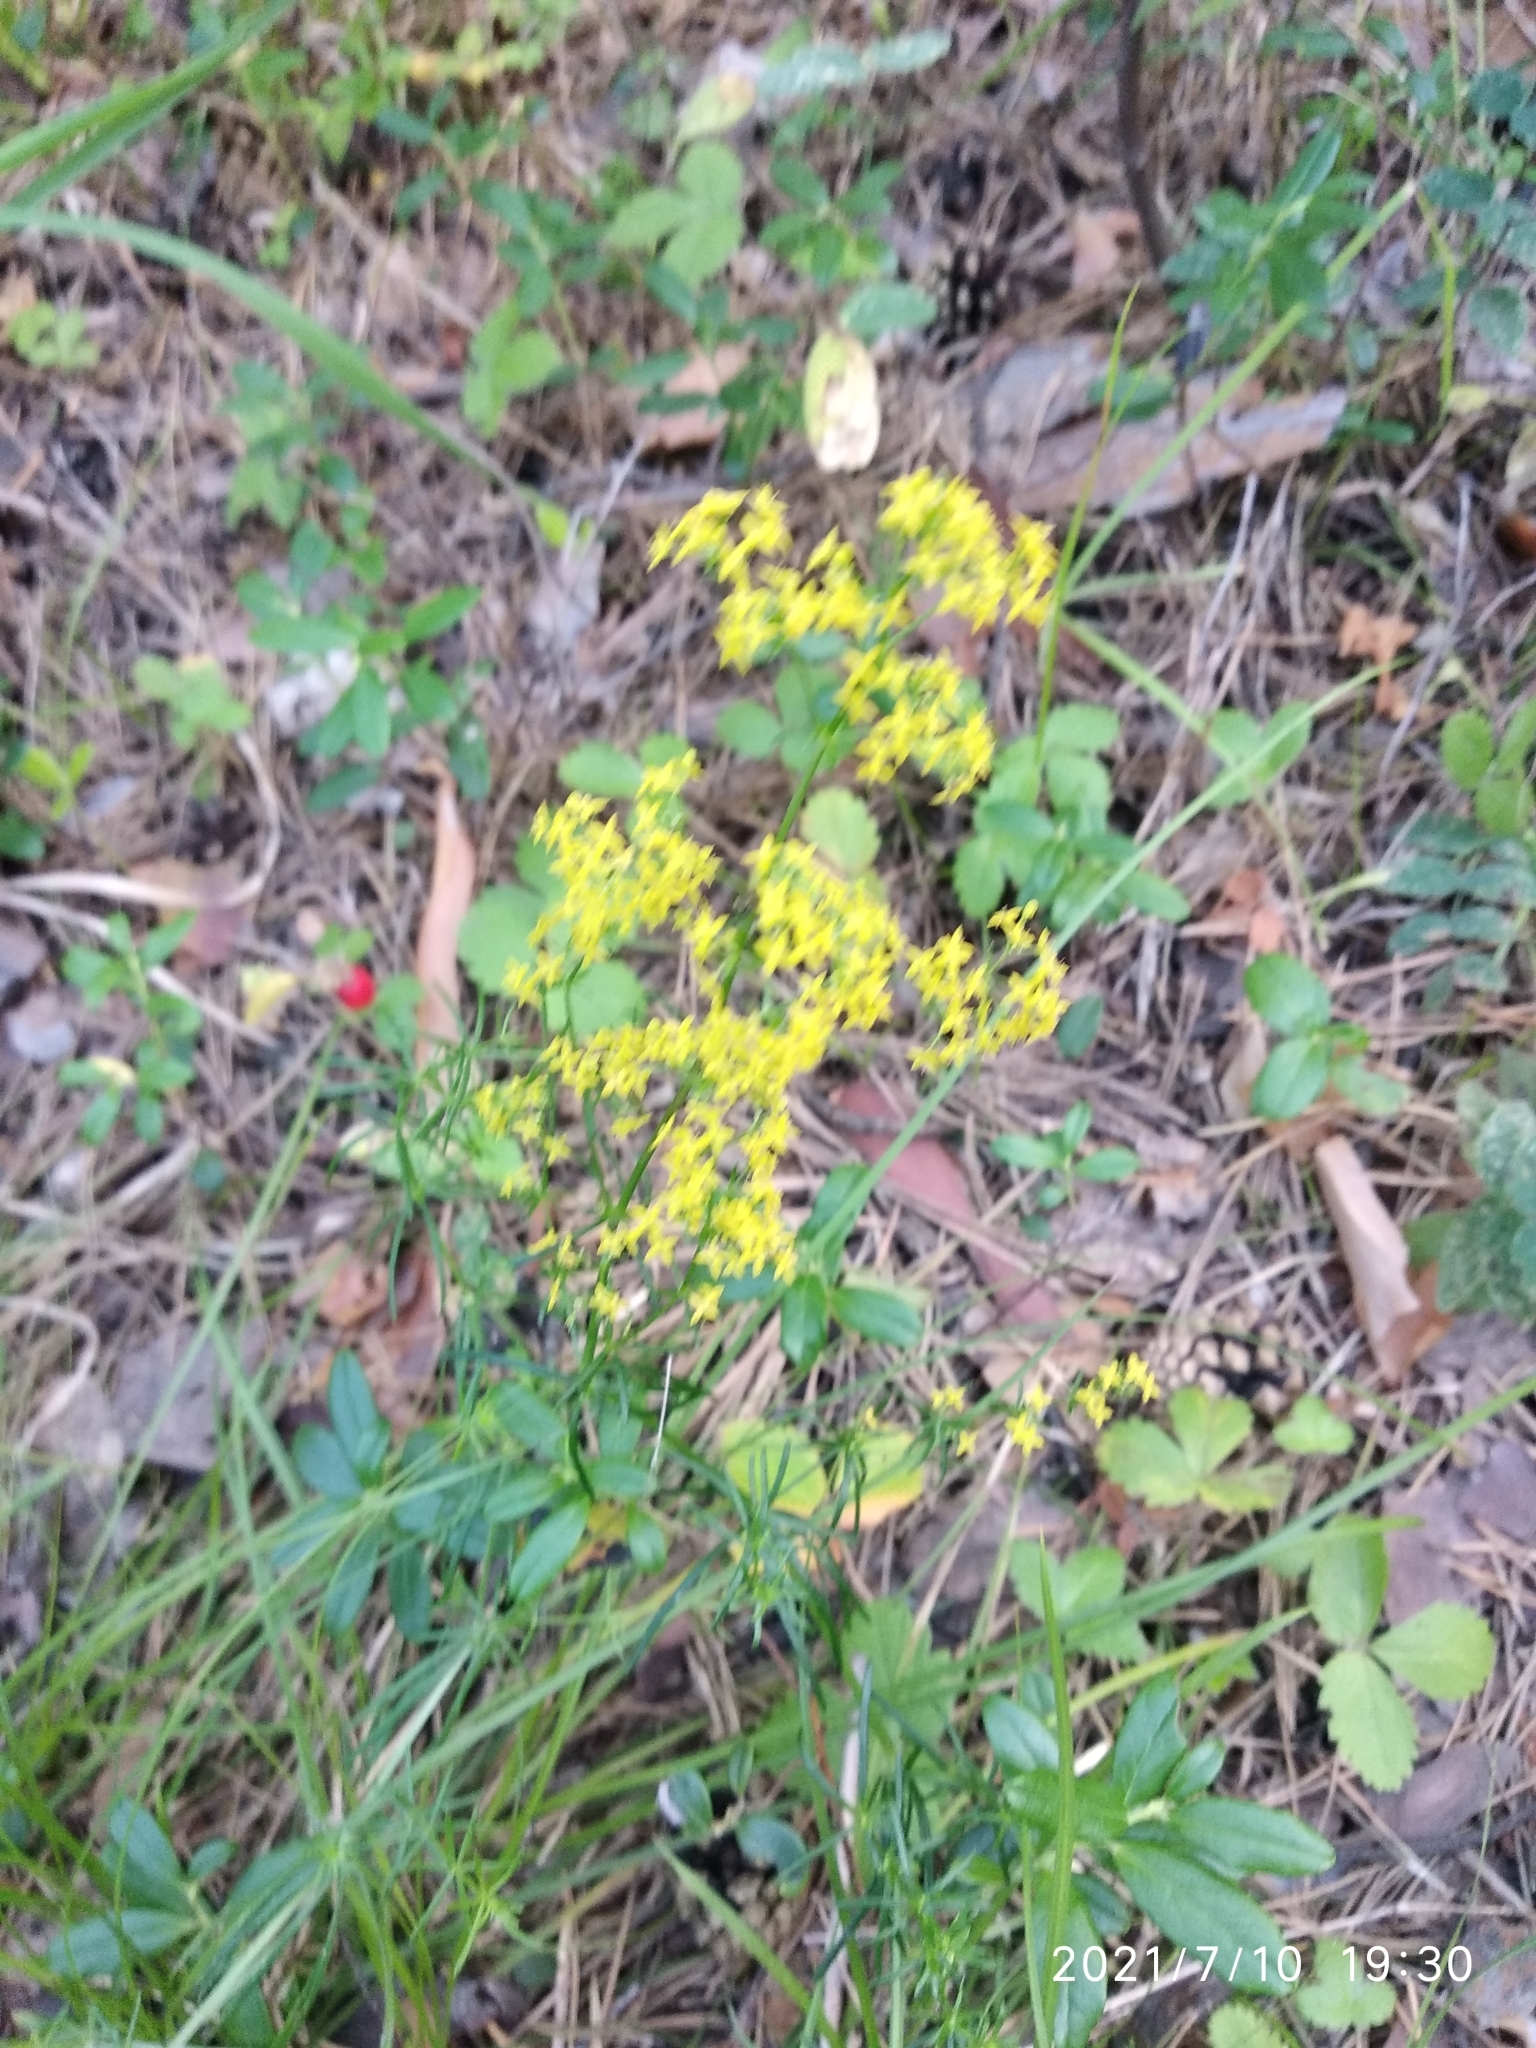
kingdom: Plantae
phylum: Tracheophyta
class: Magnoliopsida
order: Gentianales
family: Rubiaceae
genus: Galium
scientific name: Galium verum
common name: Lady's bedstraw
